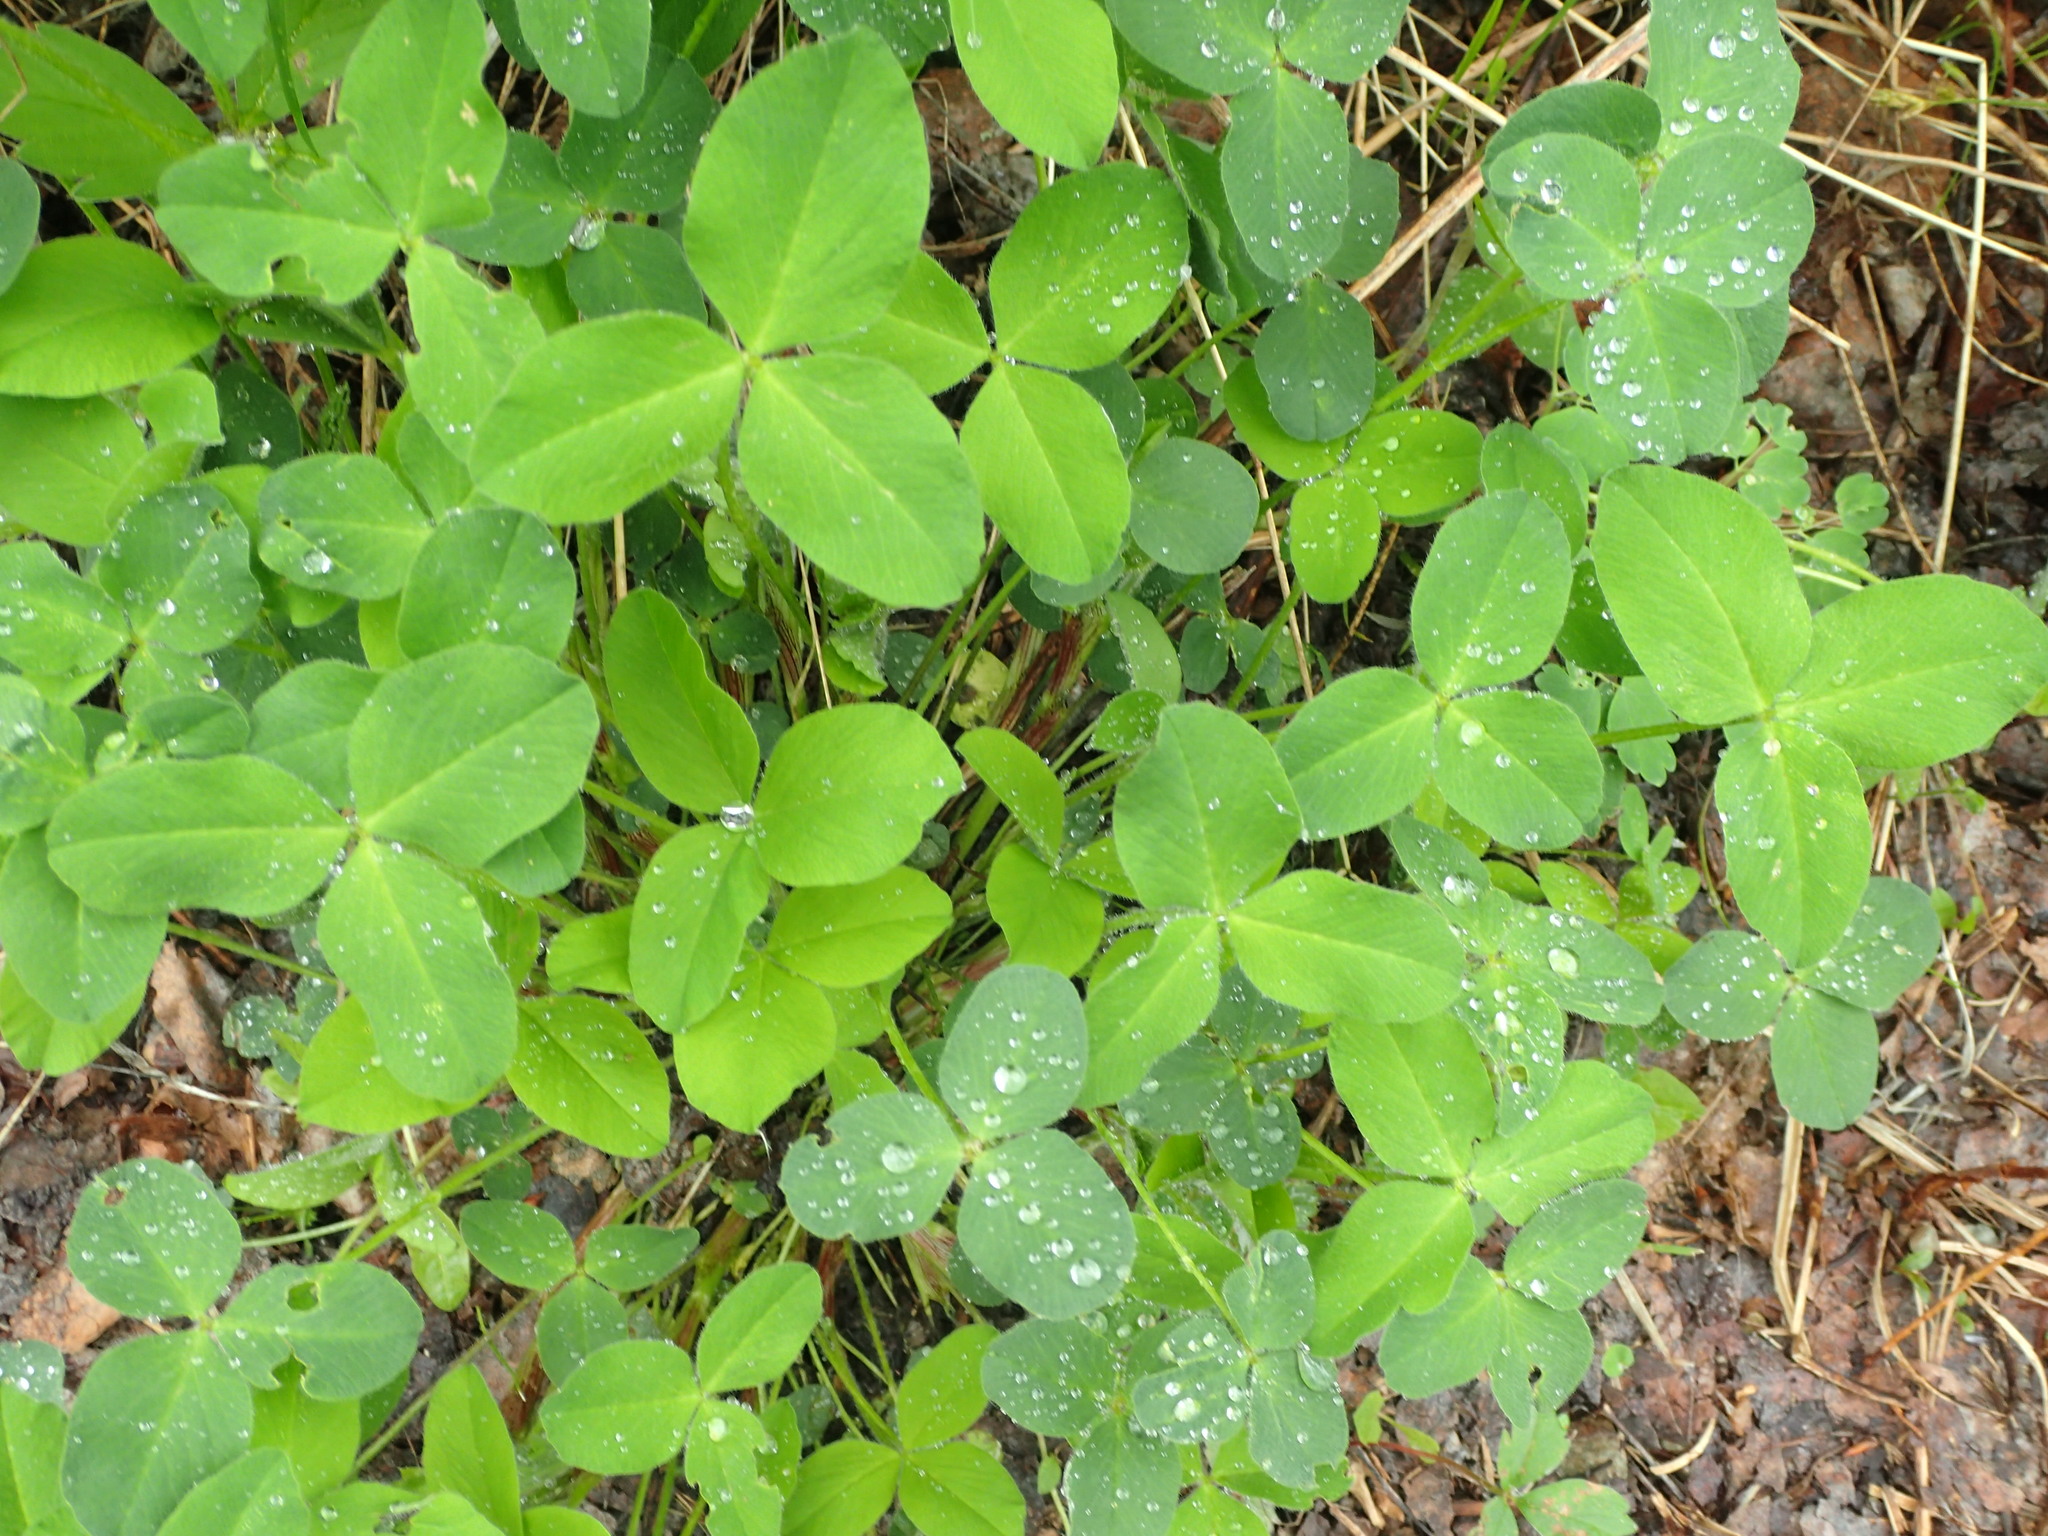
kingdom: Plantae
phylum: Tracheophyta
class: Magnoliopsida
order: Fabales
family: Fabaceae
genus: Trifolium
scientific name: Trifolium pratense
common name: Red clover
